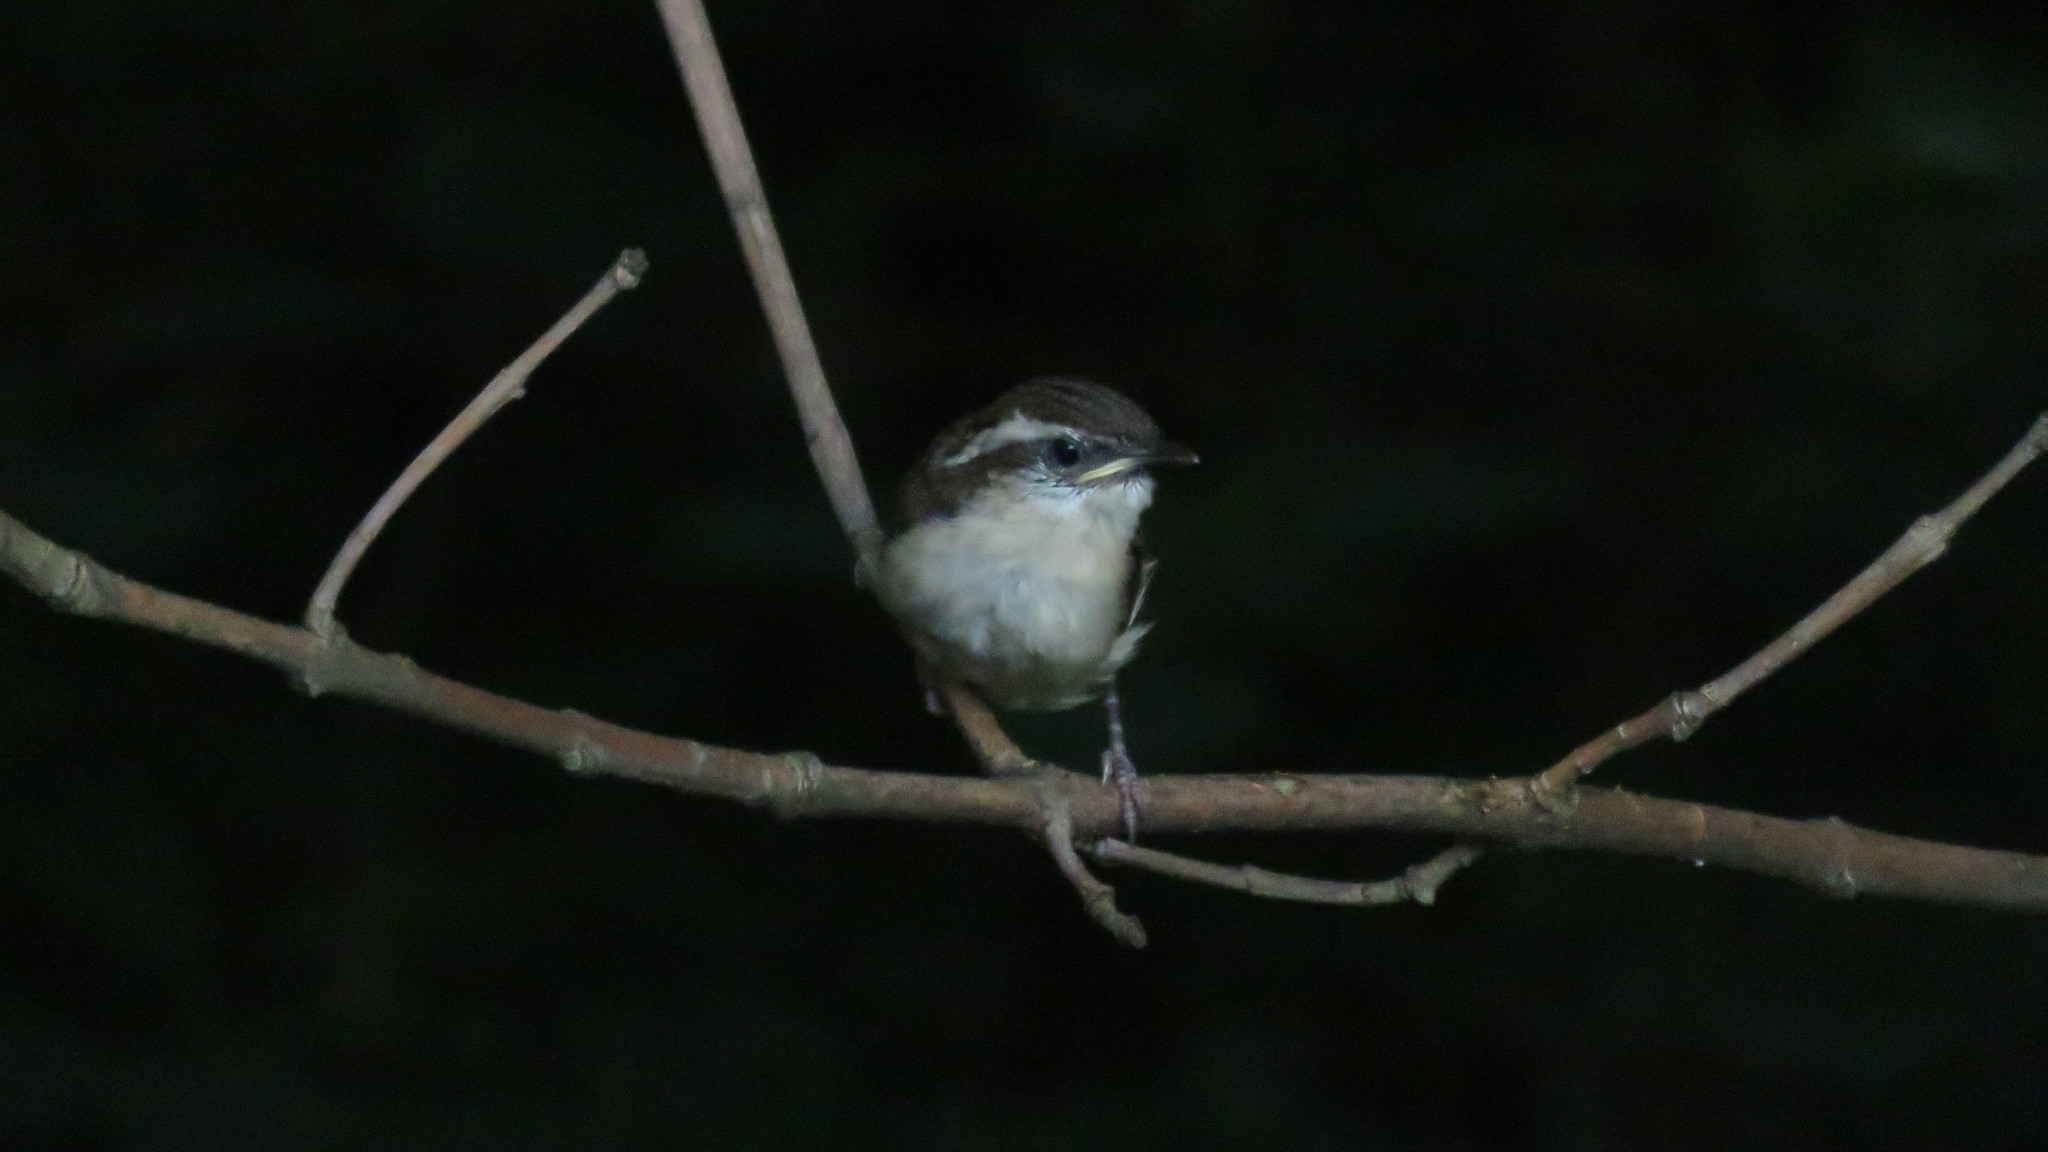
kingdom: Animalia
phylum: Chordata
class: Aves
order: Passeriformes
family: Troglodytidae
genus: Thryothorus
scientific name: Thryothorus ludovicianus
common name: Carolina wren
